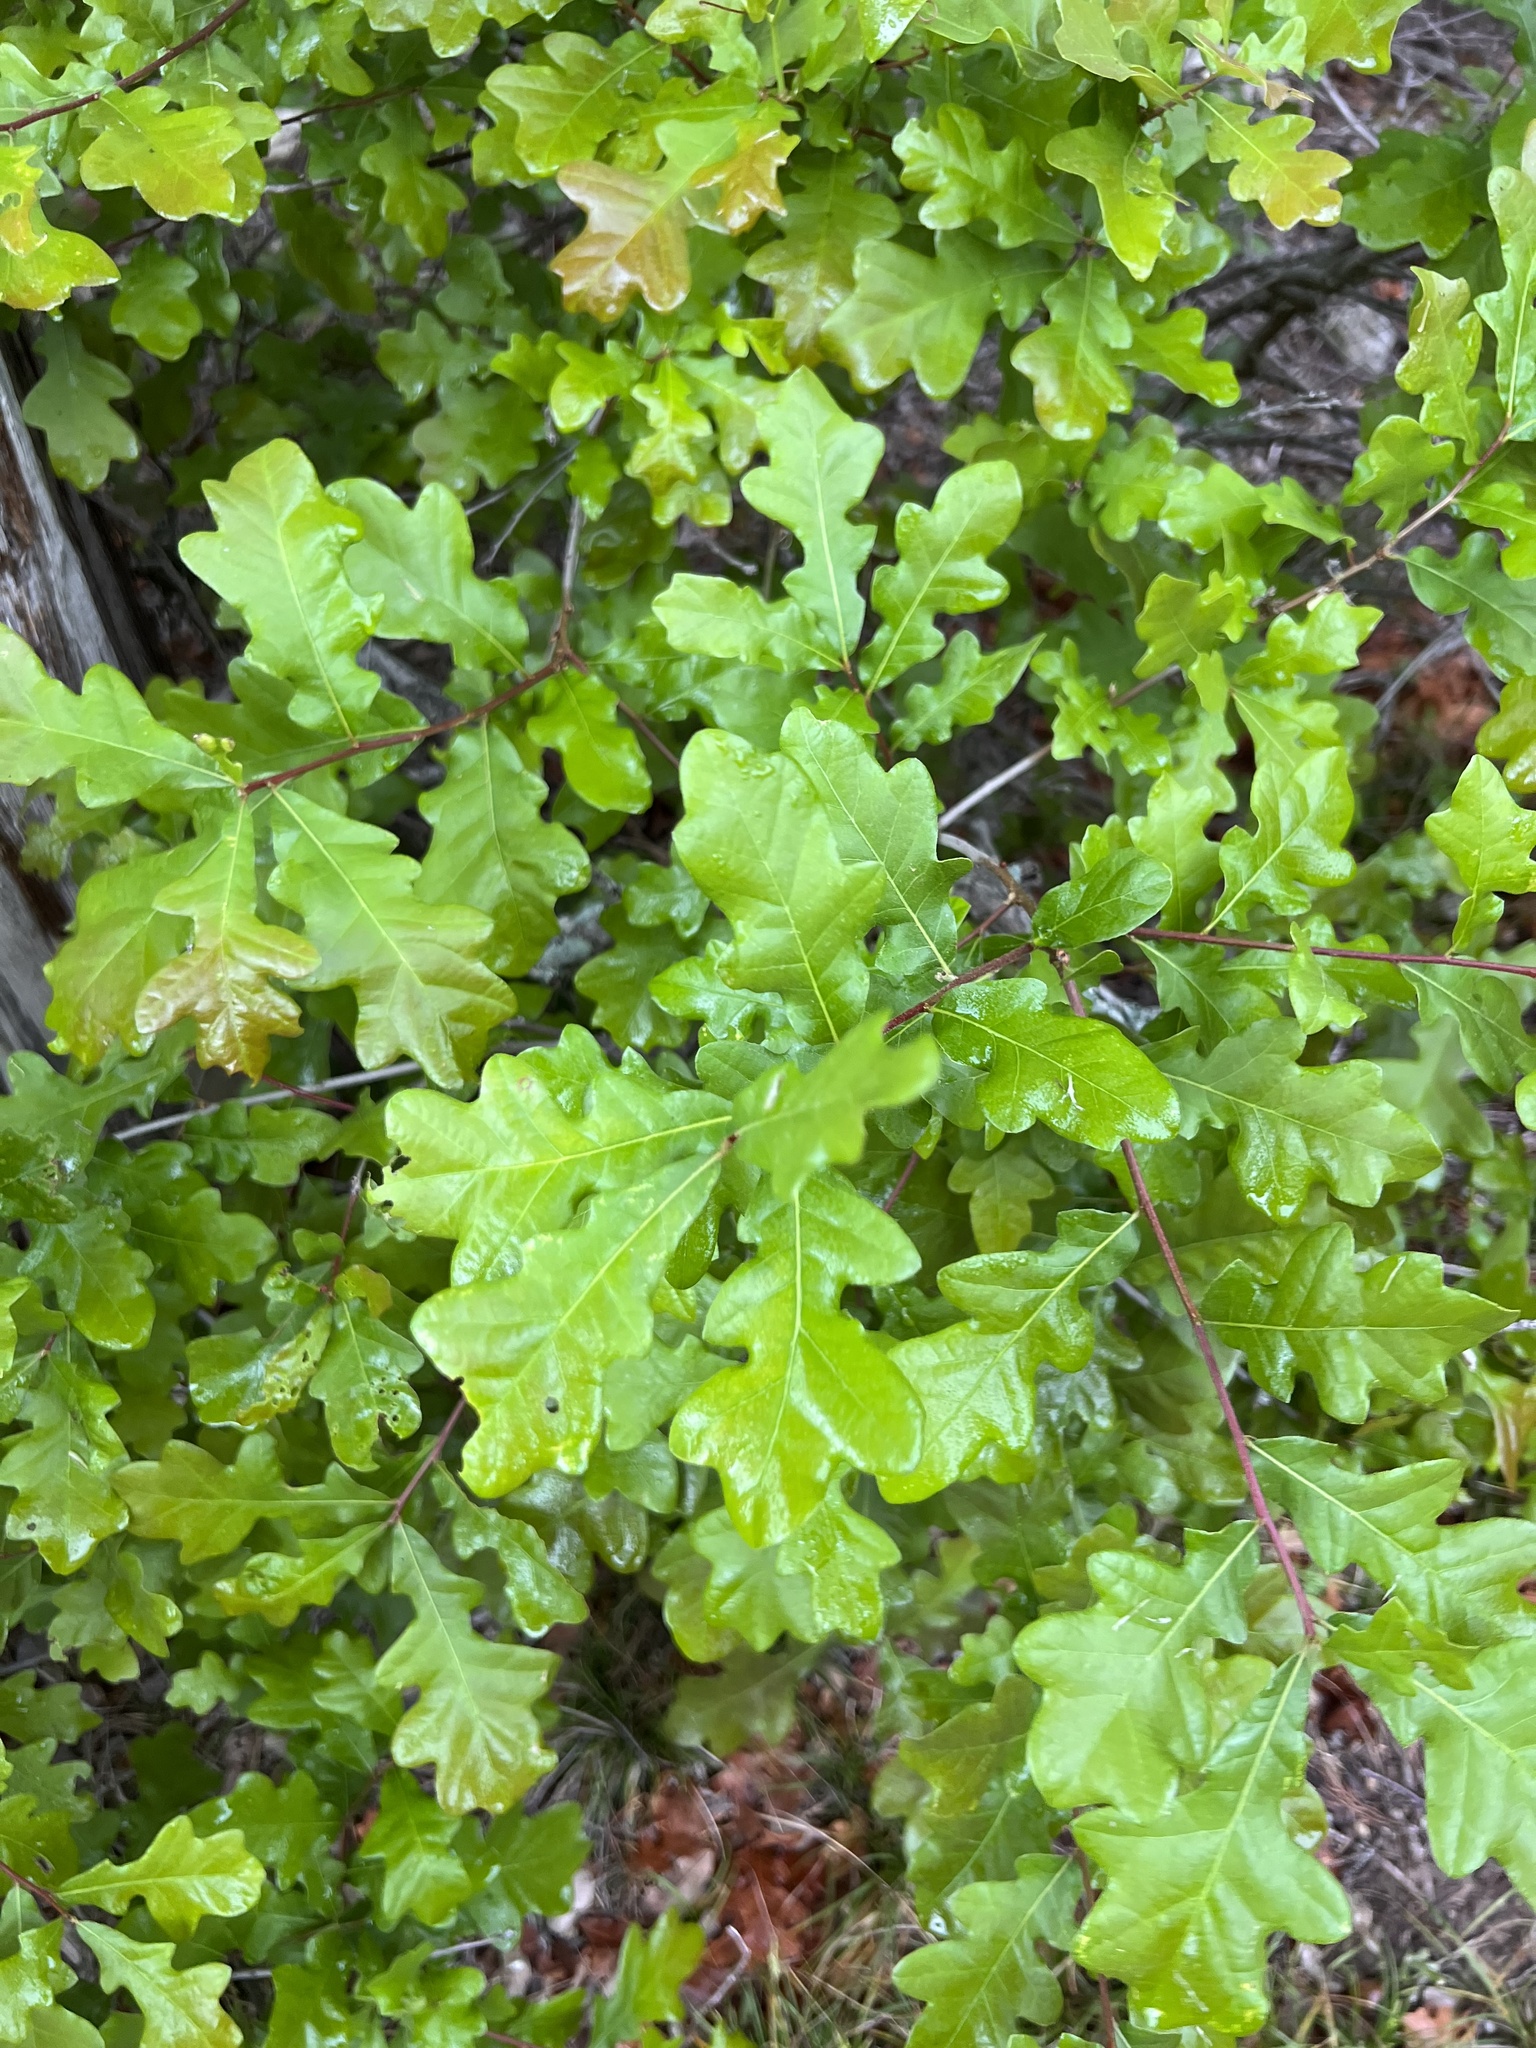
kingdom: Plantae
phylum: Tracheophyta
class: Magnoliopsida
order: Fagales
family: Fagaceae
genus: Quercus
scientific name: Quercus sinuata
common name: Durand oak
